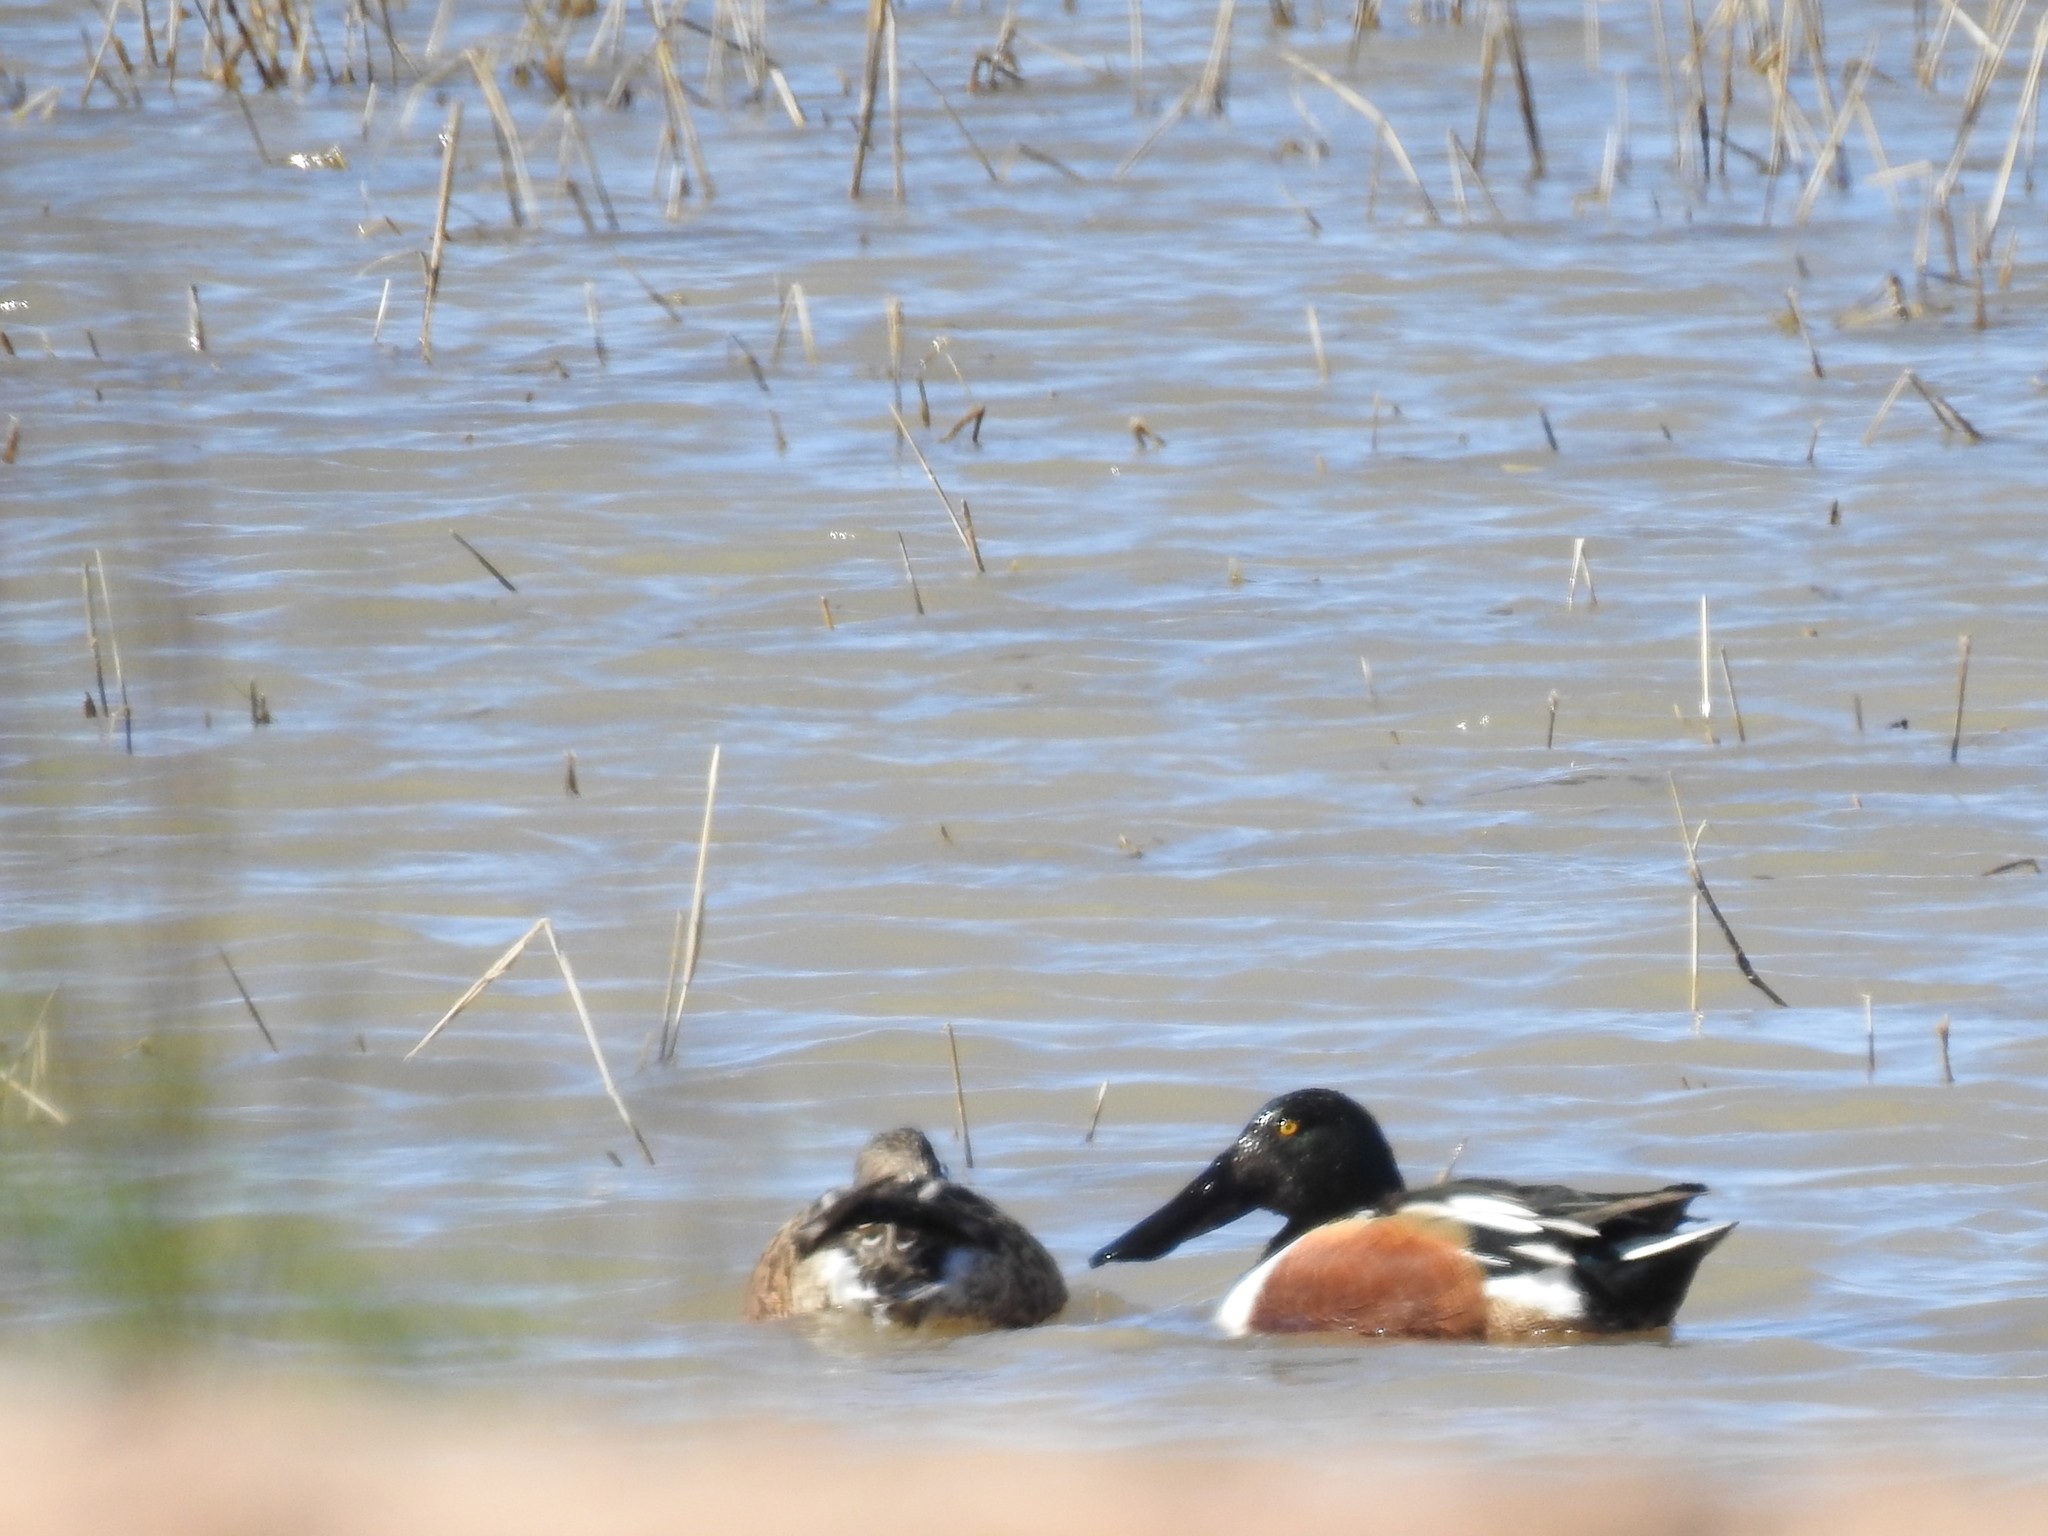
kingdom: Animalia
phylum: Chordata
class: Aves
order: Anseriformes
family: Anatidae
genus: Spatula
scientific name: Spatula clypeata
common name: Northern shoveler
